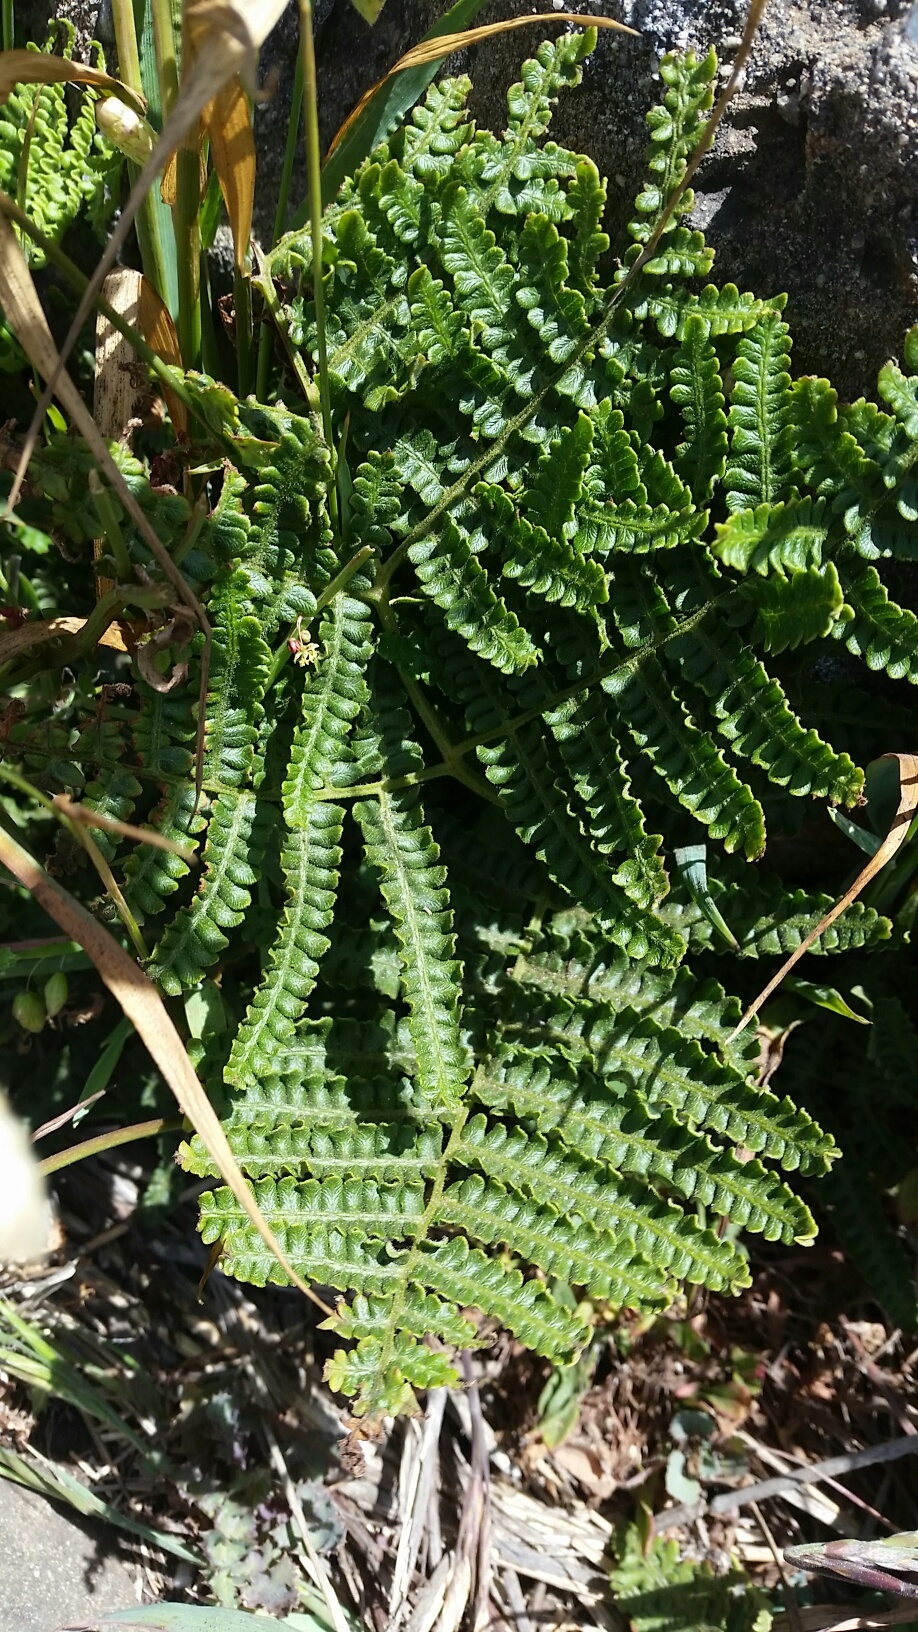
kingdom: Plantae
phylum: Tracheophyta
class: Polypodiopsida
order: Polypodiales
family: Dennstaedtiaceae
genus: Pteridium
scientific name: Pteridium aquilinum
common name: Bracken
